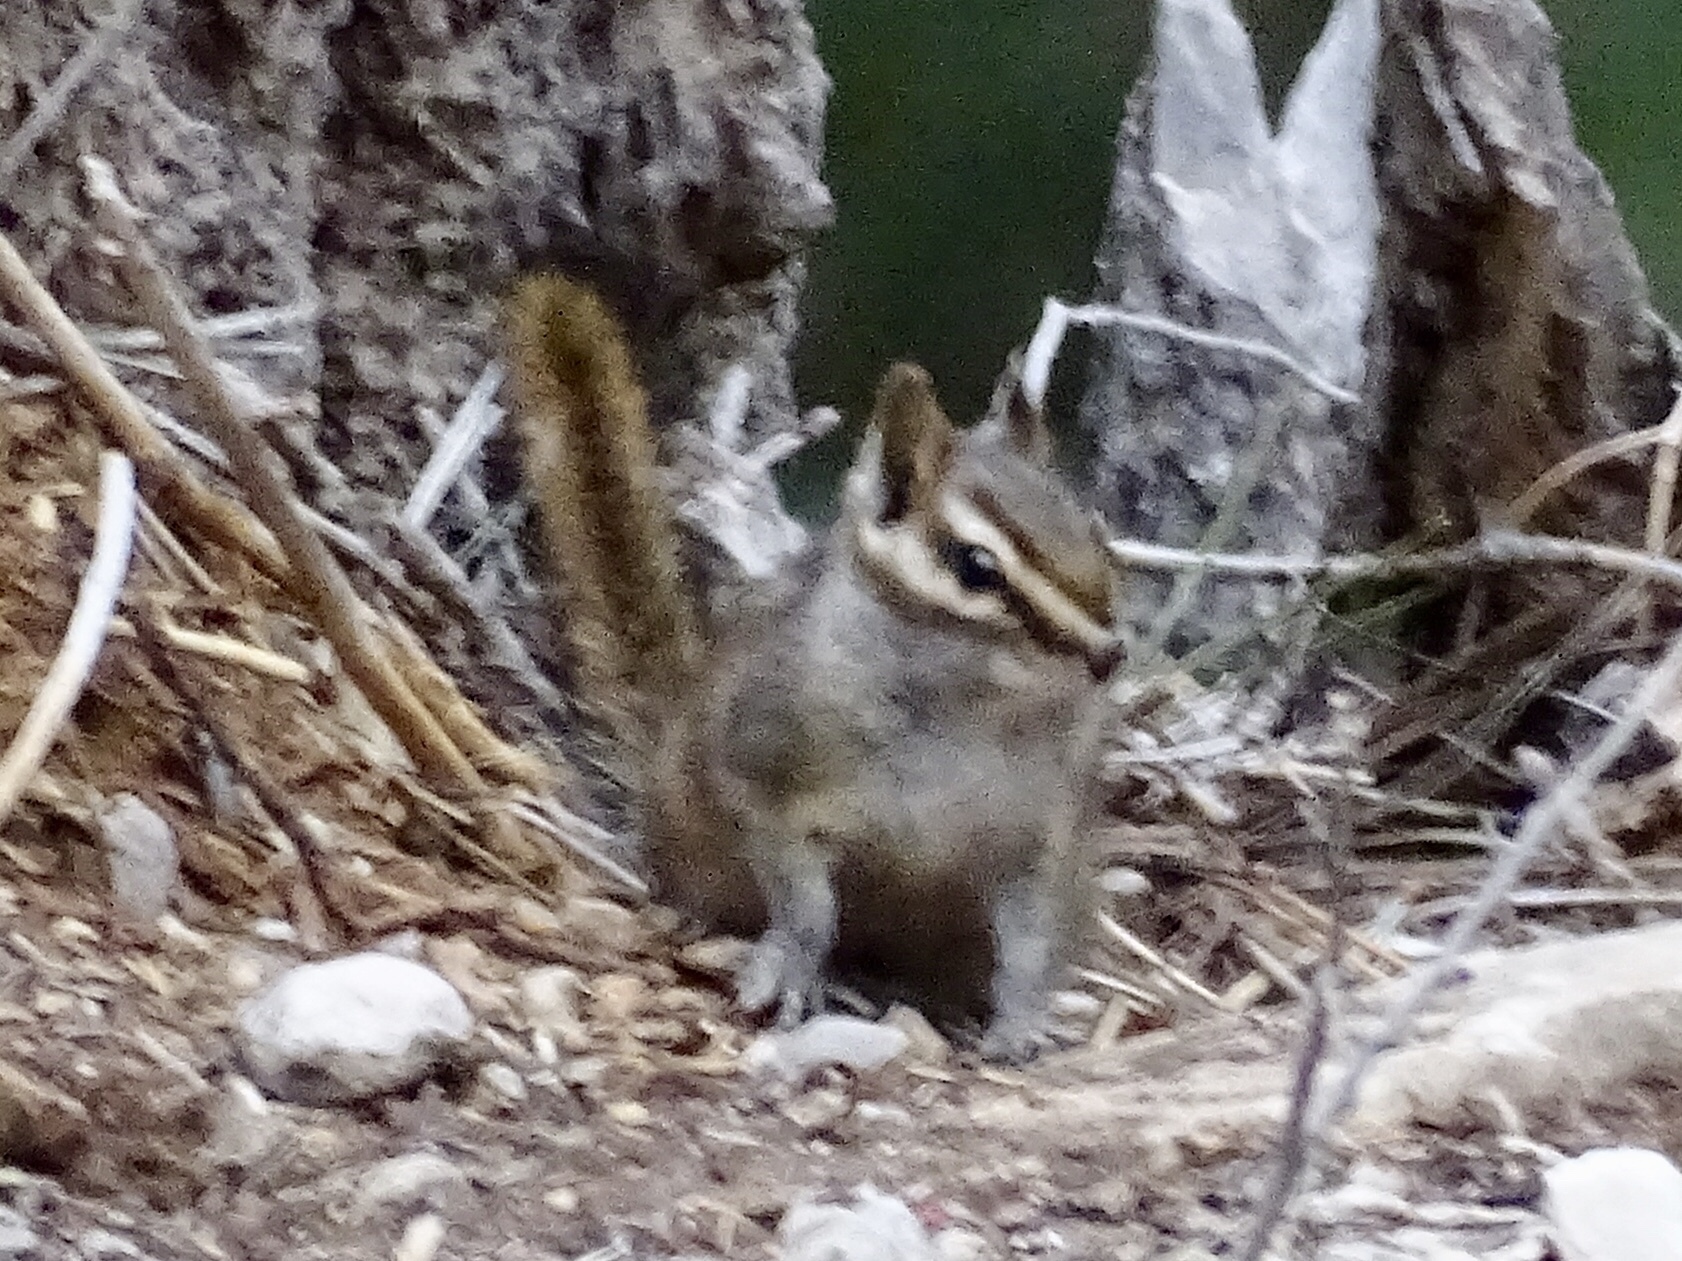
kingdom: Animalia
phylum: Chordata
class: Mammalia
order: Rodentia
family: Sciuridae
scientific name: Sciuridae
